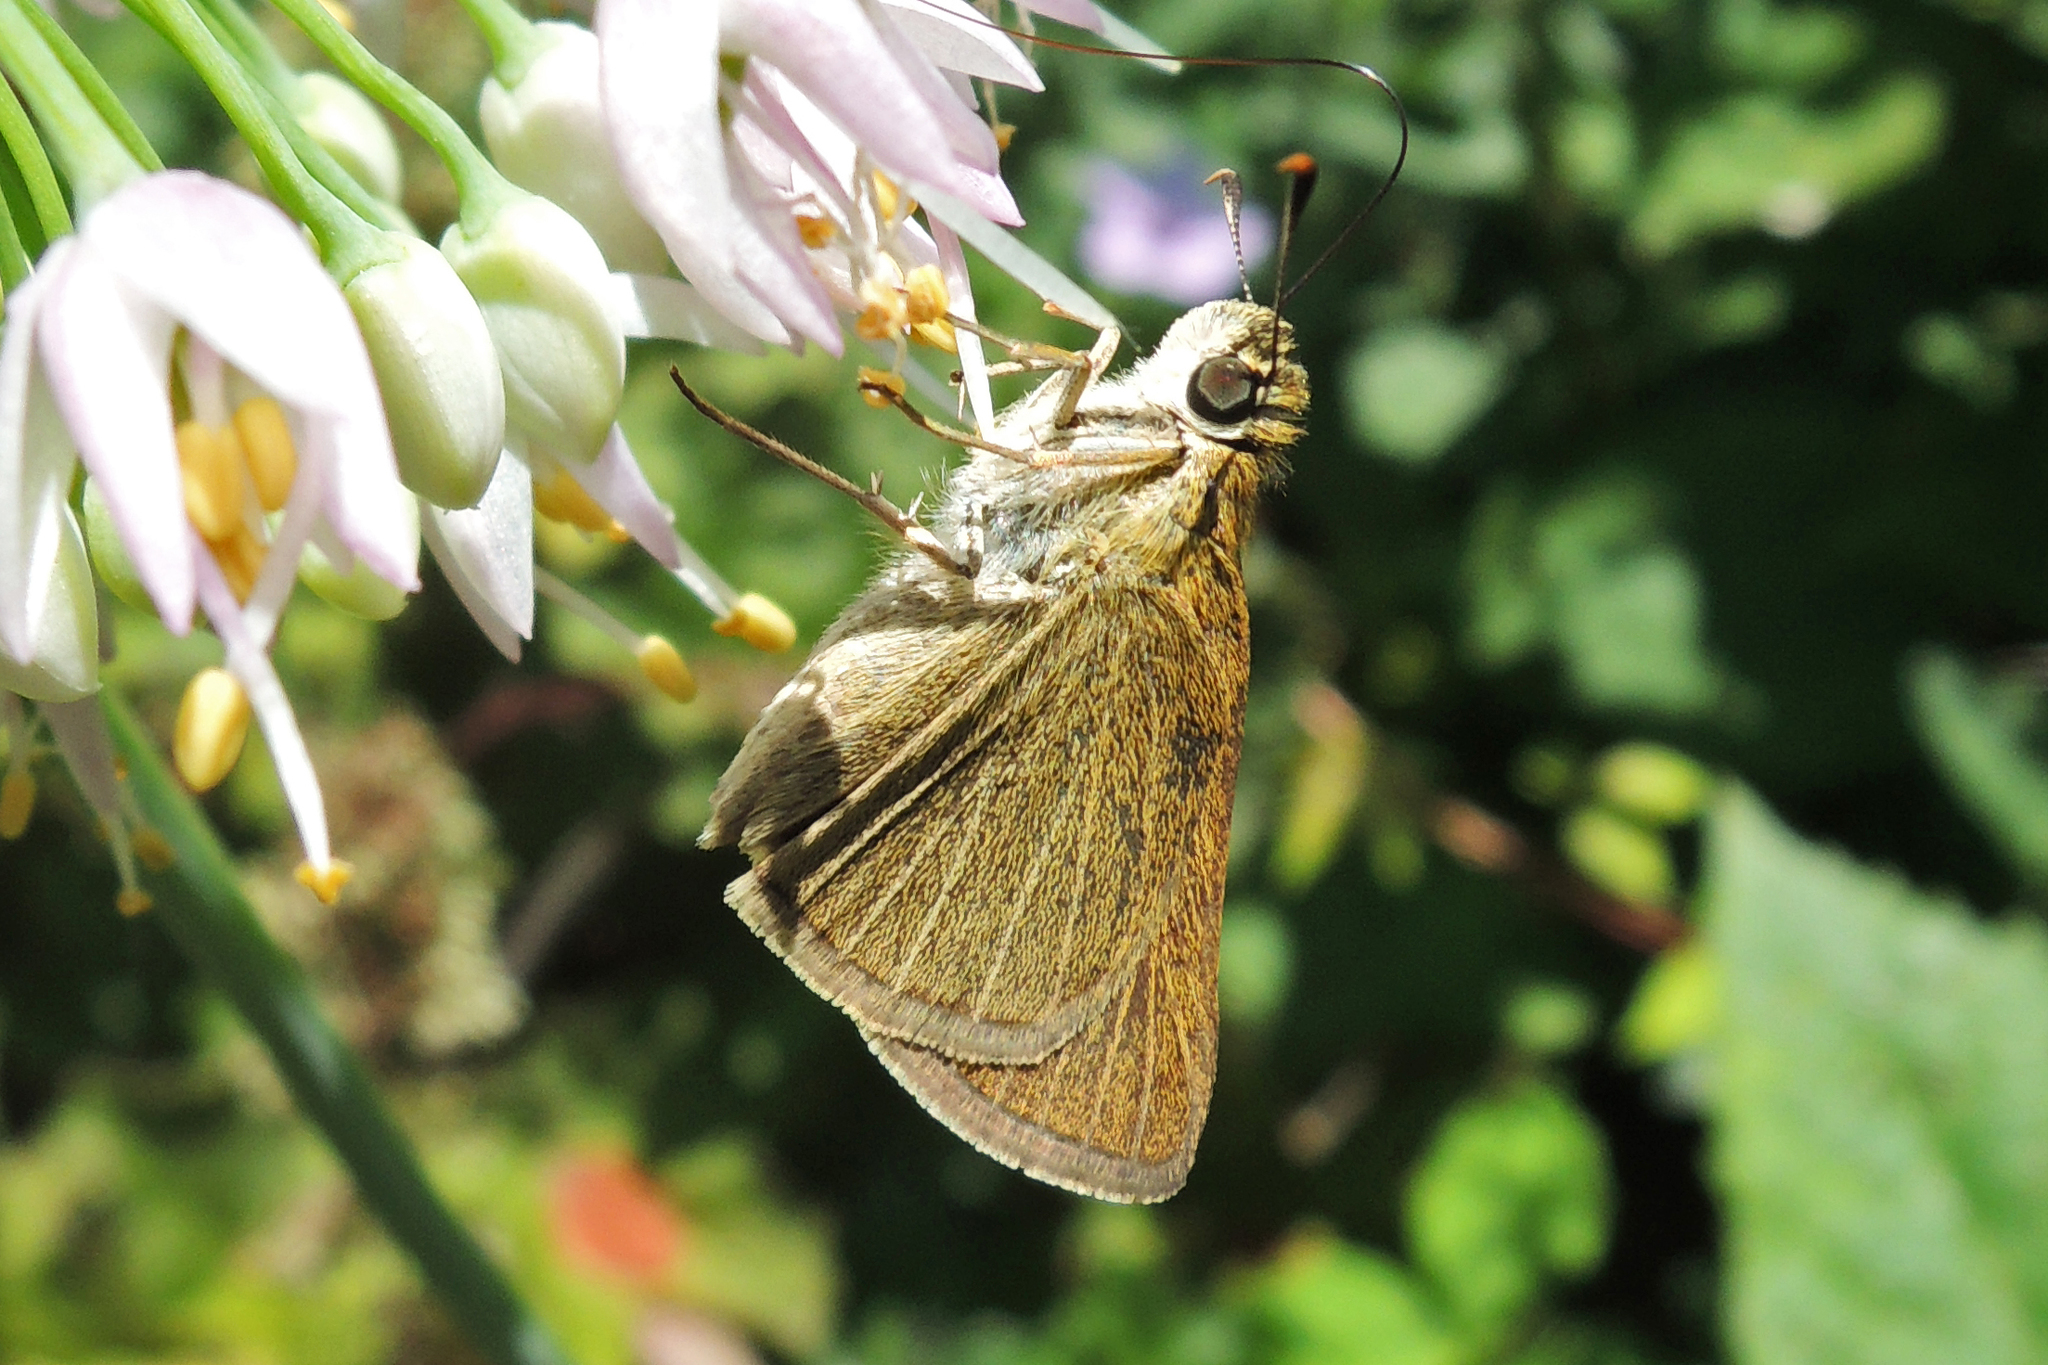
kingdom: Animalia
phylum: Arthropoda
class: Insecta
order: Lepidoptera
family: Hesperiidae
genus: Nastra
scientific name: Nastra lherminier
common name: Swarthy skipper
